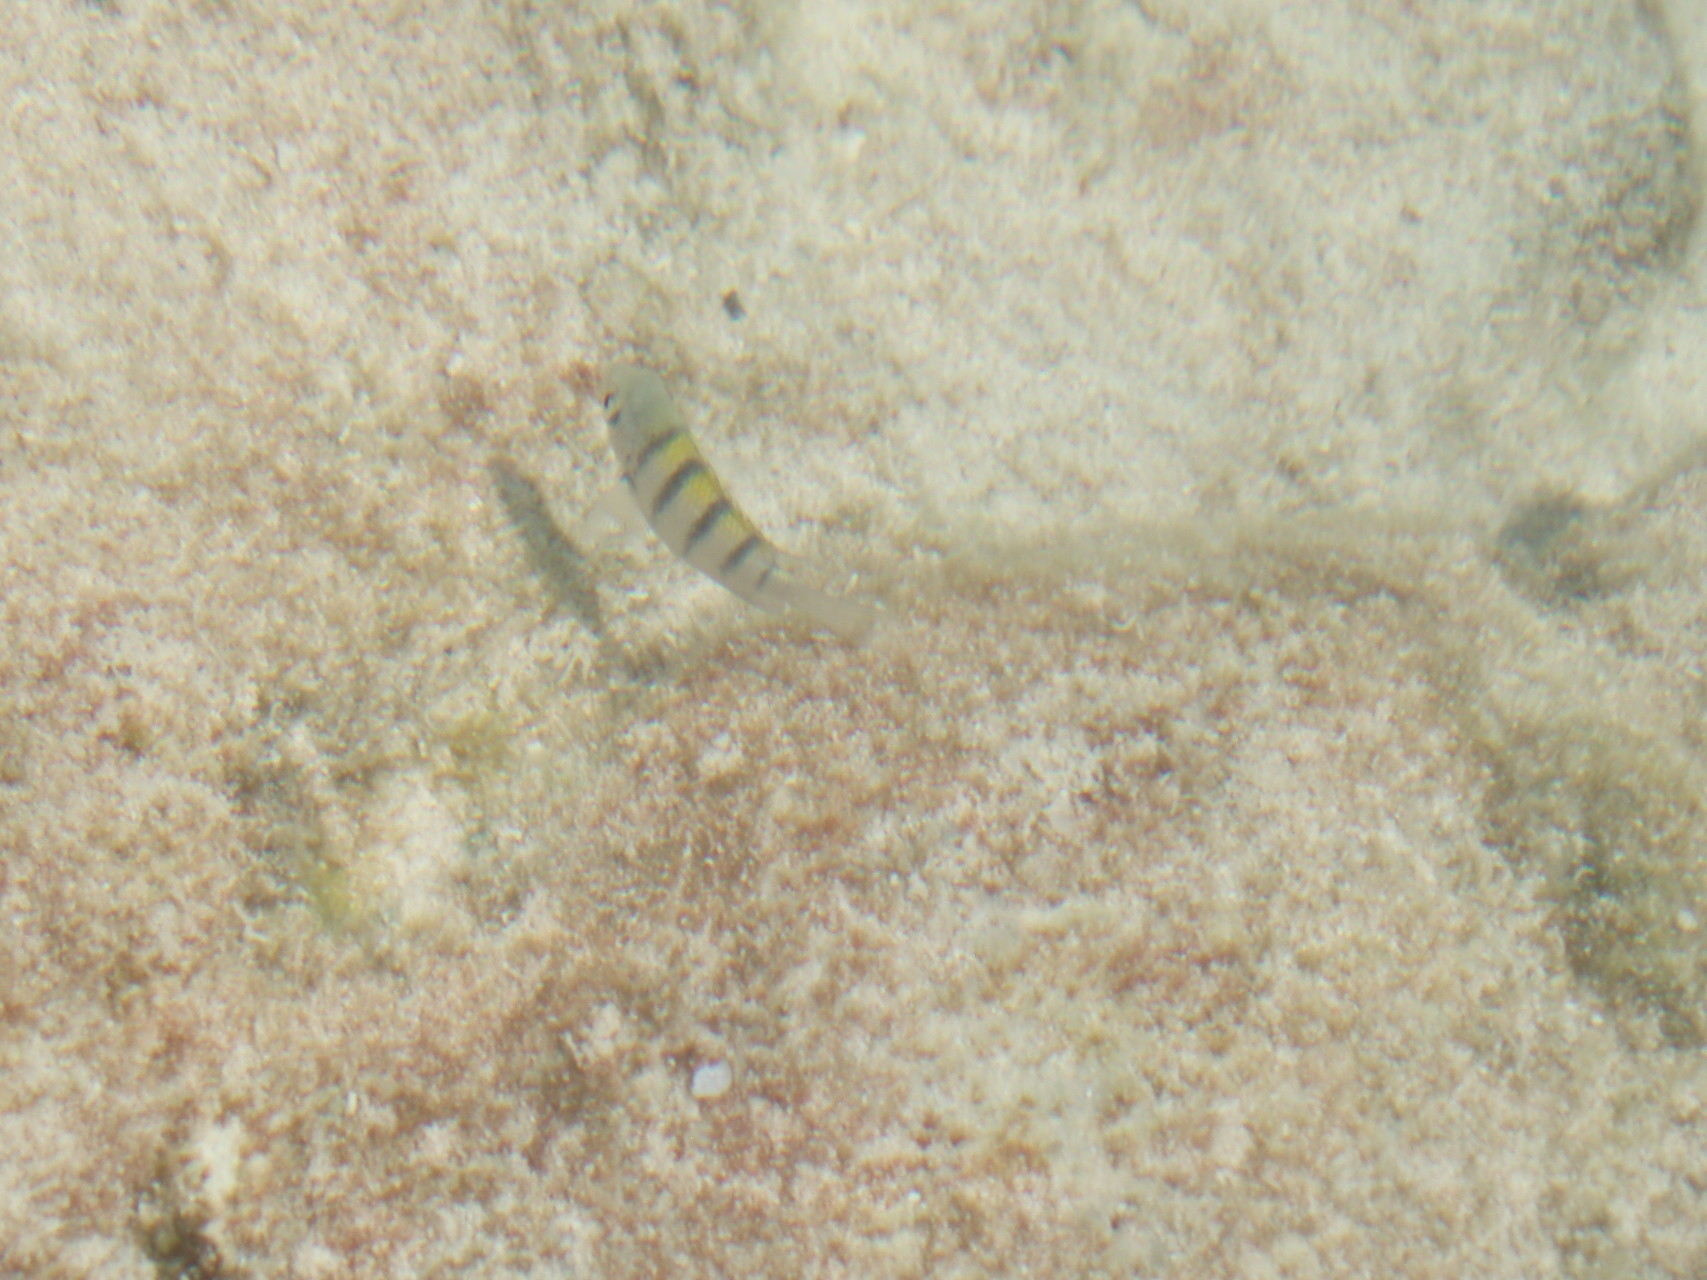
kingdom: Animalia
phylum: Chordata
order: Perciformes
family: Pomacentridae
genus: Abudefduf
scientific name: Abudefduf saxatilis
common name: Sergeant major
